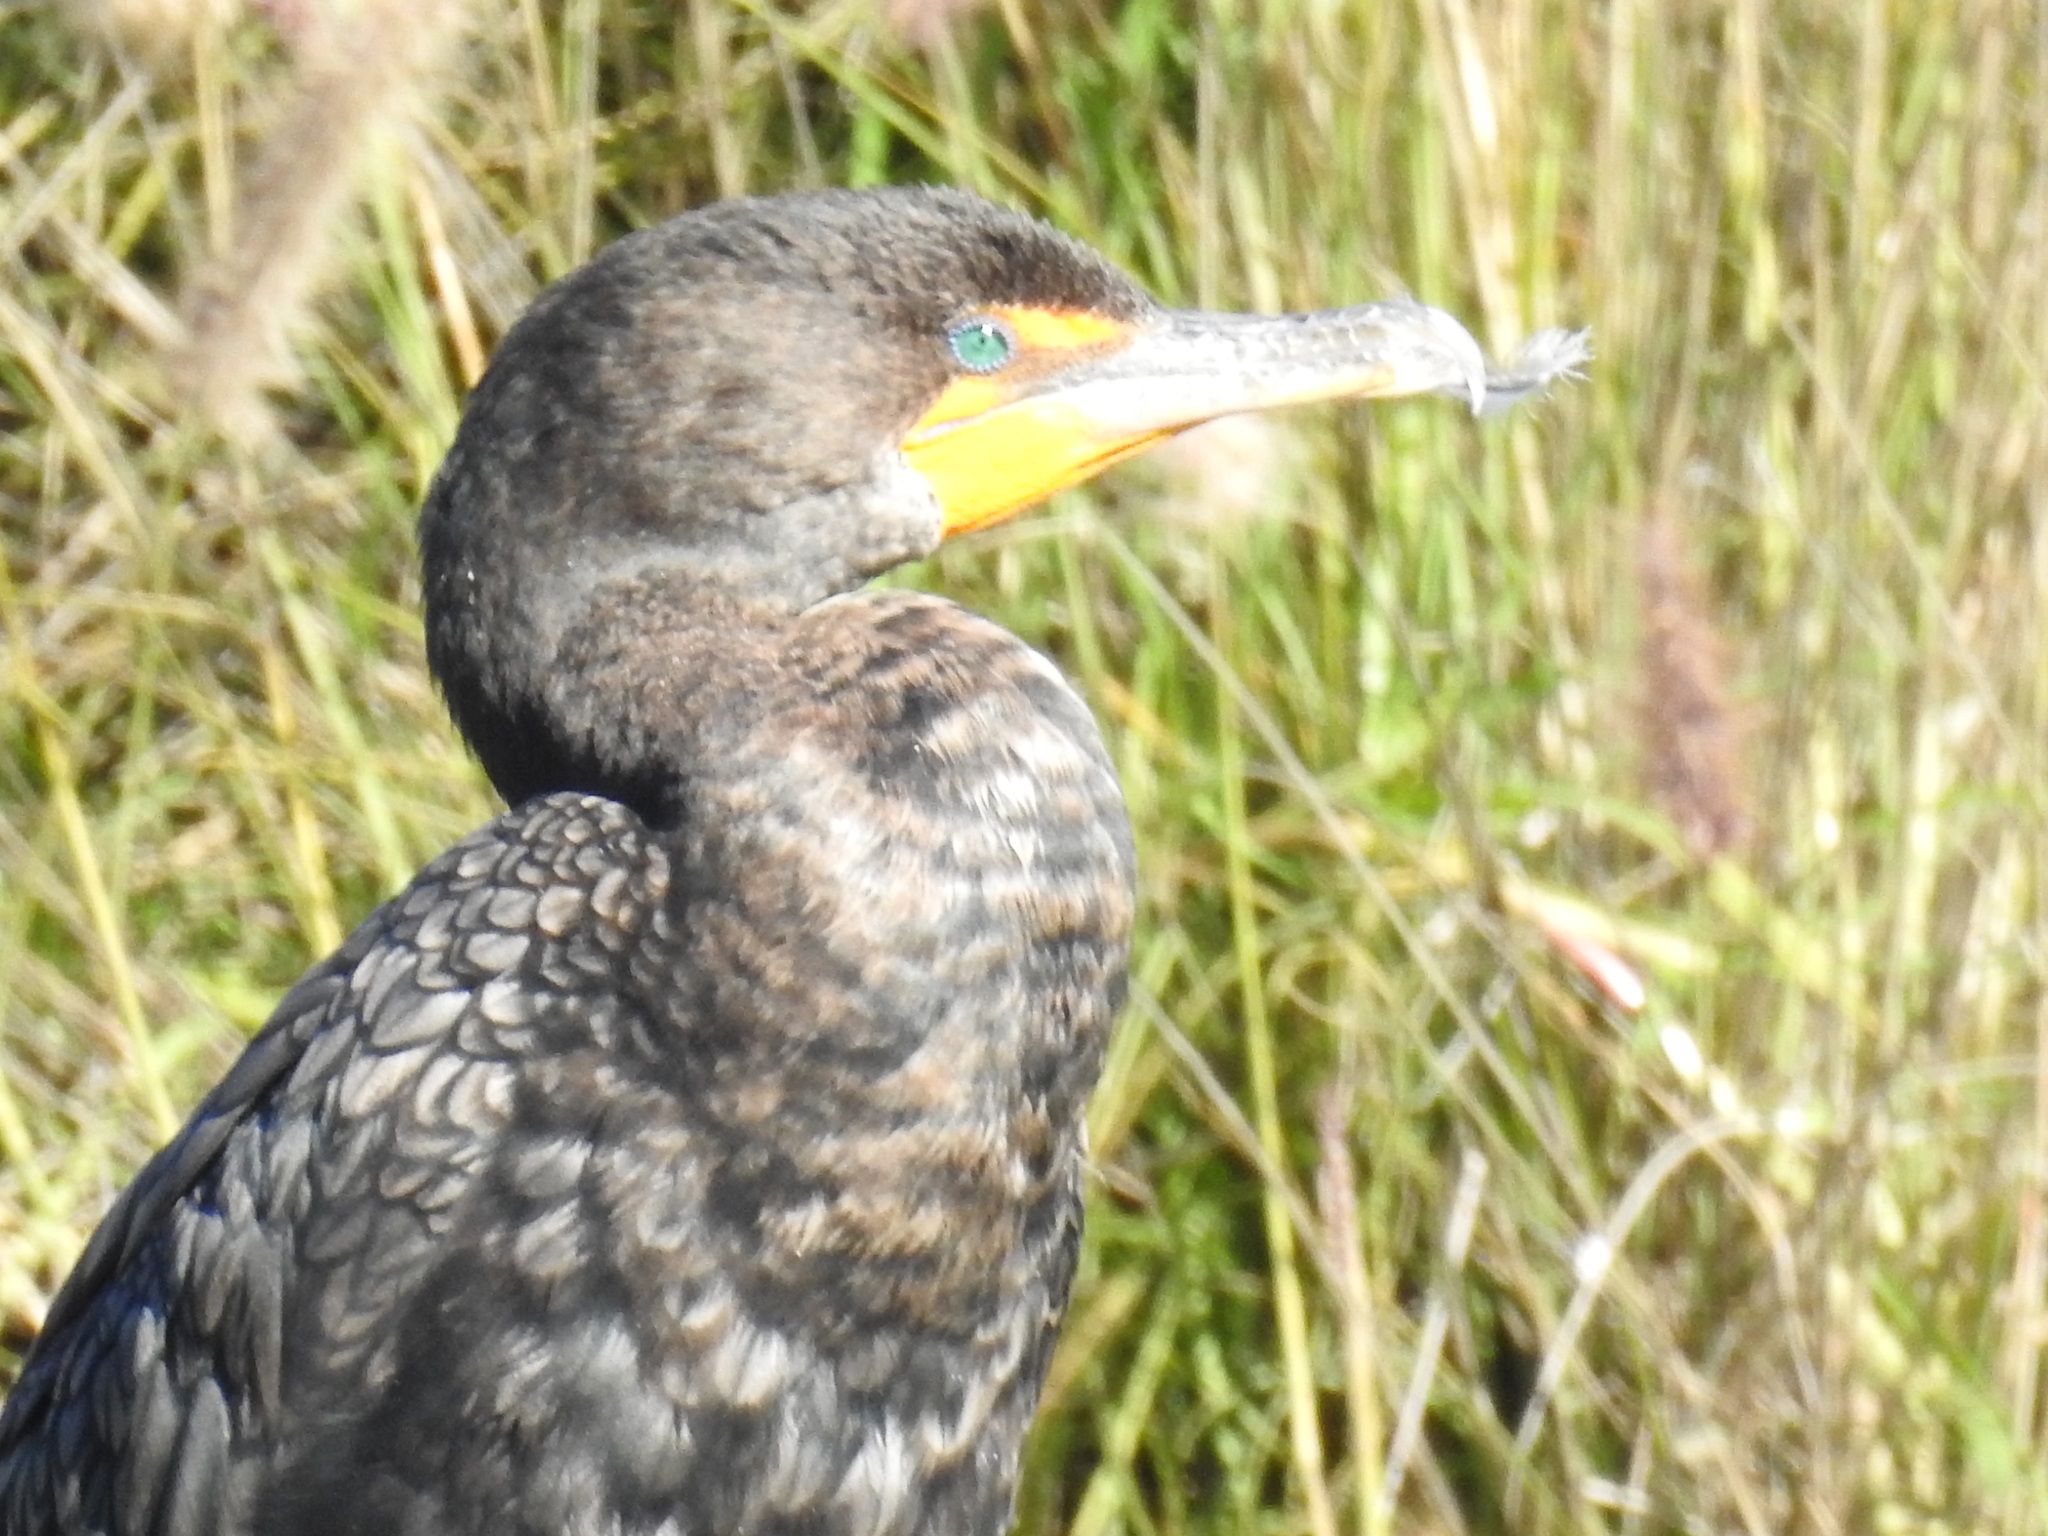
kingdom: Animalia
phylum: Chordata
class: Aves
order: Suliformes
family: Phalacrocoracidae
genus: Phalacrocorax
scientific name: Phalacrocorax auritus
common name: Double-crested cormorant
